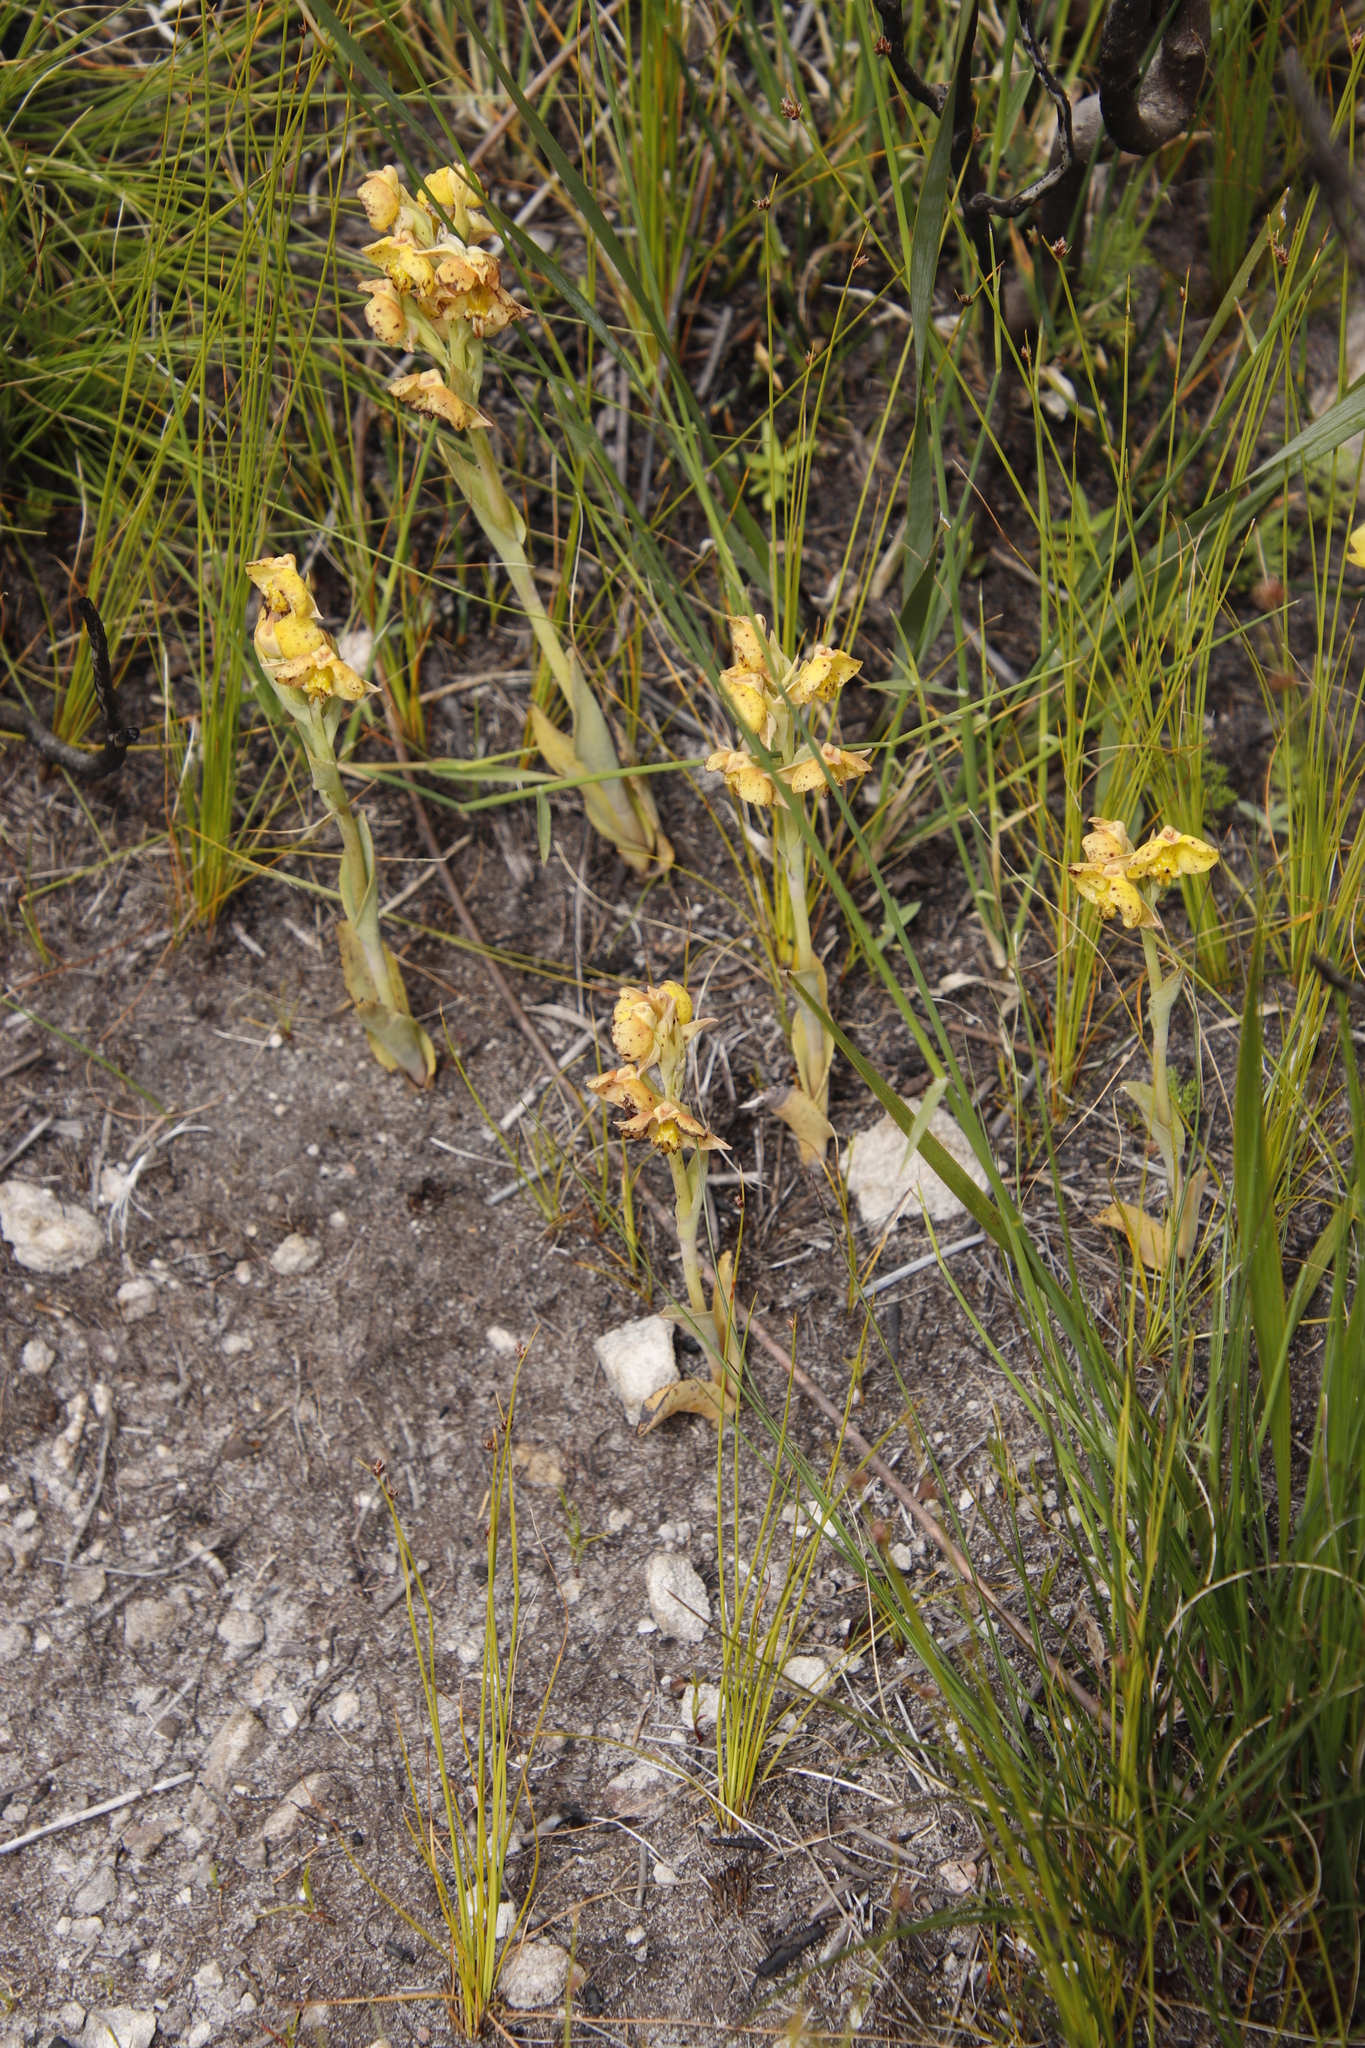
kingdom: Plantae
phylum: Tracheophyta
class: Liliopsida
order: Asparagales
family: Orchidaceae
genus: Pterygodium
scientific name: Pterygodium acutifolium
